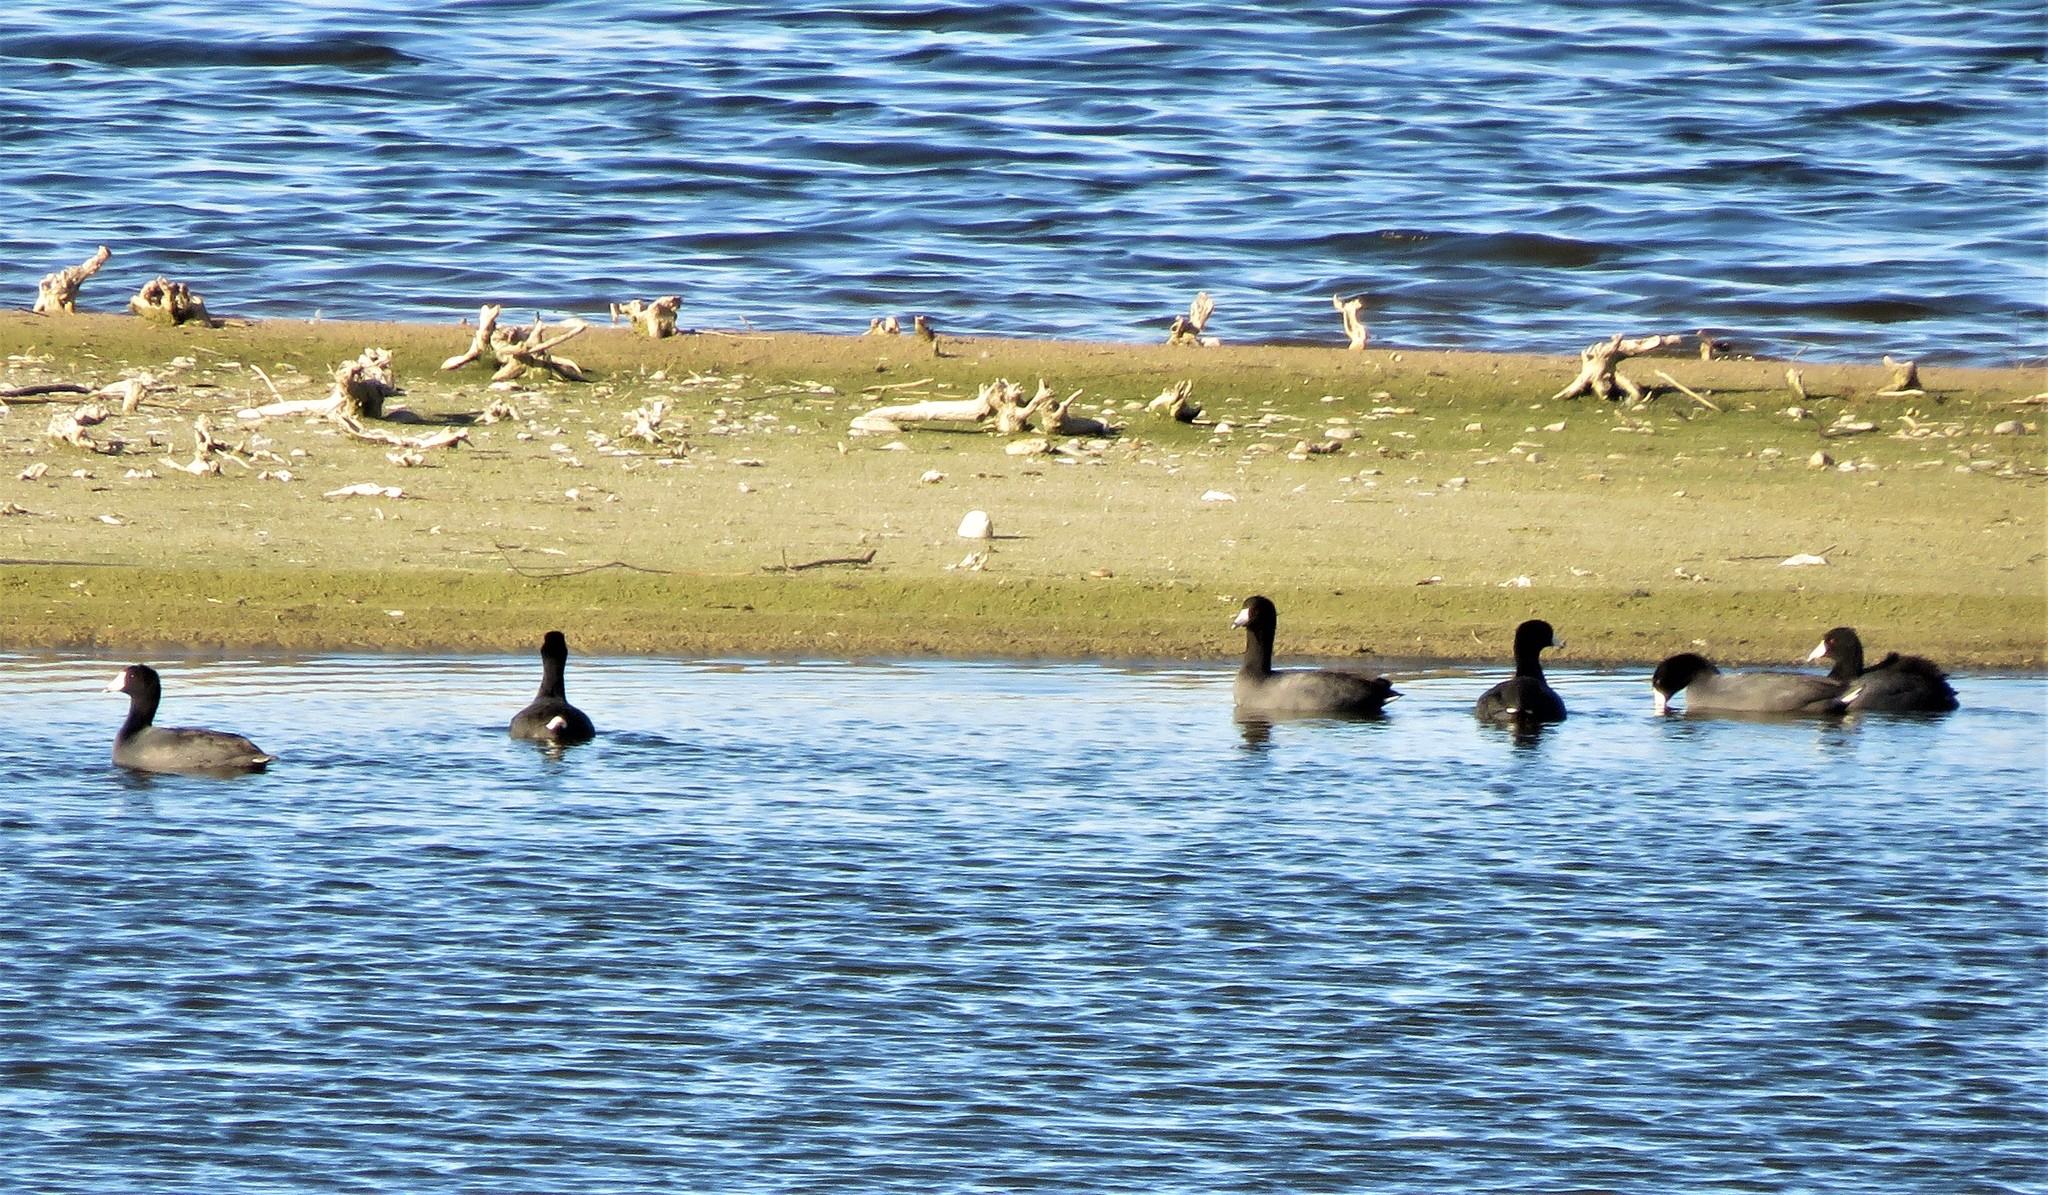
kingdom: Animalia
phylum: Chordata
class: Aves
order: Gruiformes
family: Rallidae
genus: Fulica
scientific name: Fulica americana
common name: American coot
